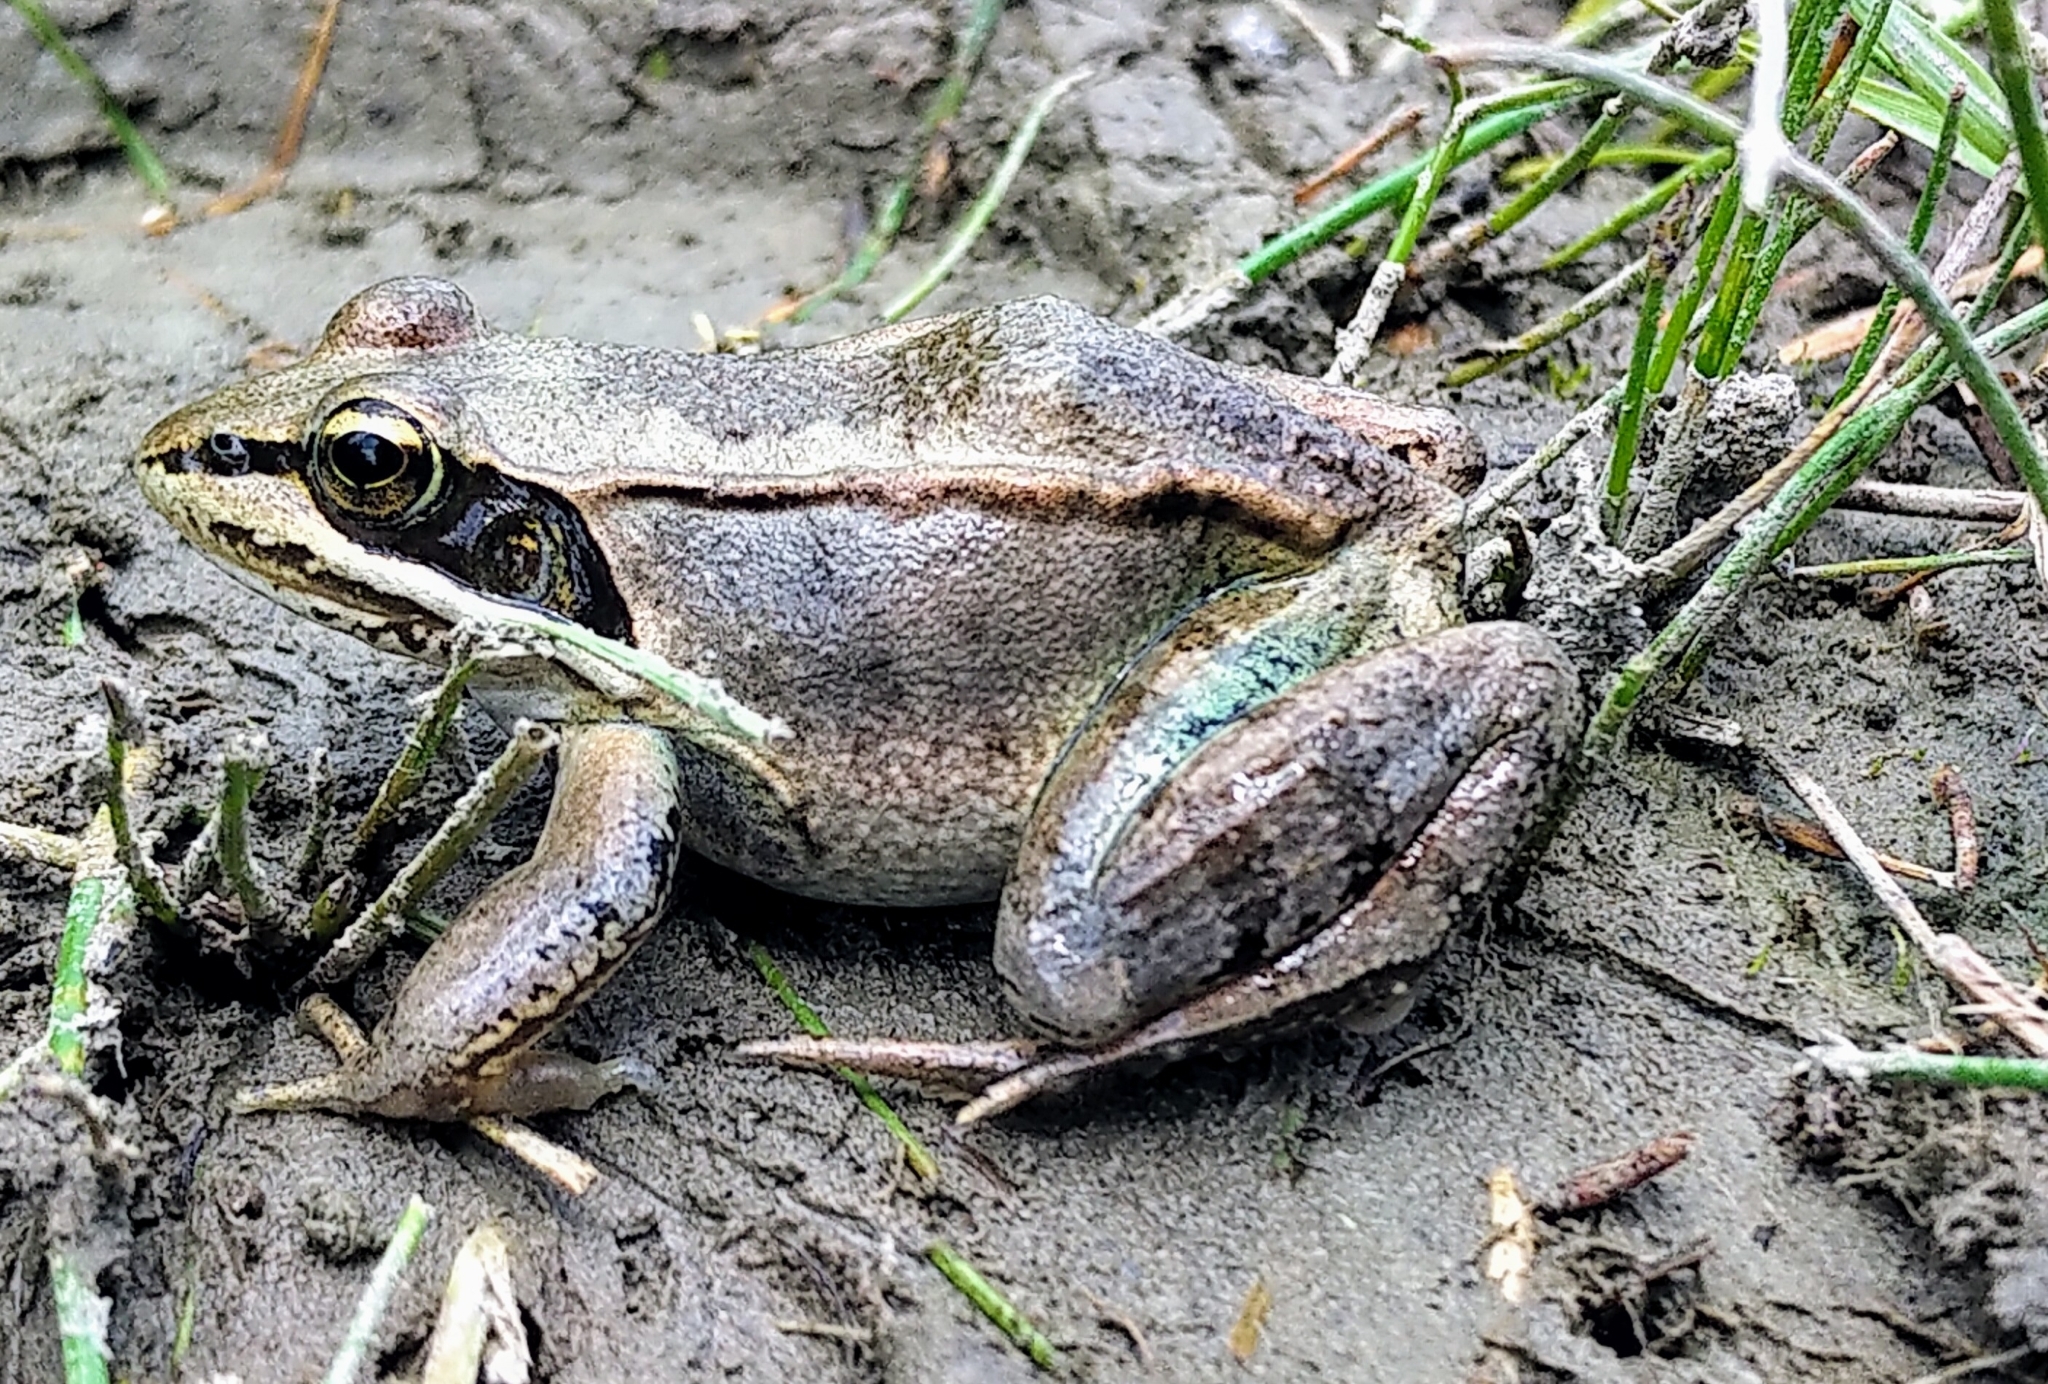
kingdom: Animalia
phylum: Chordata
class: Amphibia
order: Anura
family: Ranidae
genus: Lithobates
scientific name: Lithobates sylvaticus
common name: Wood frog
